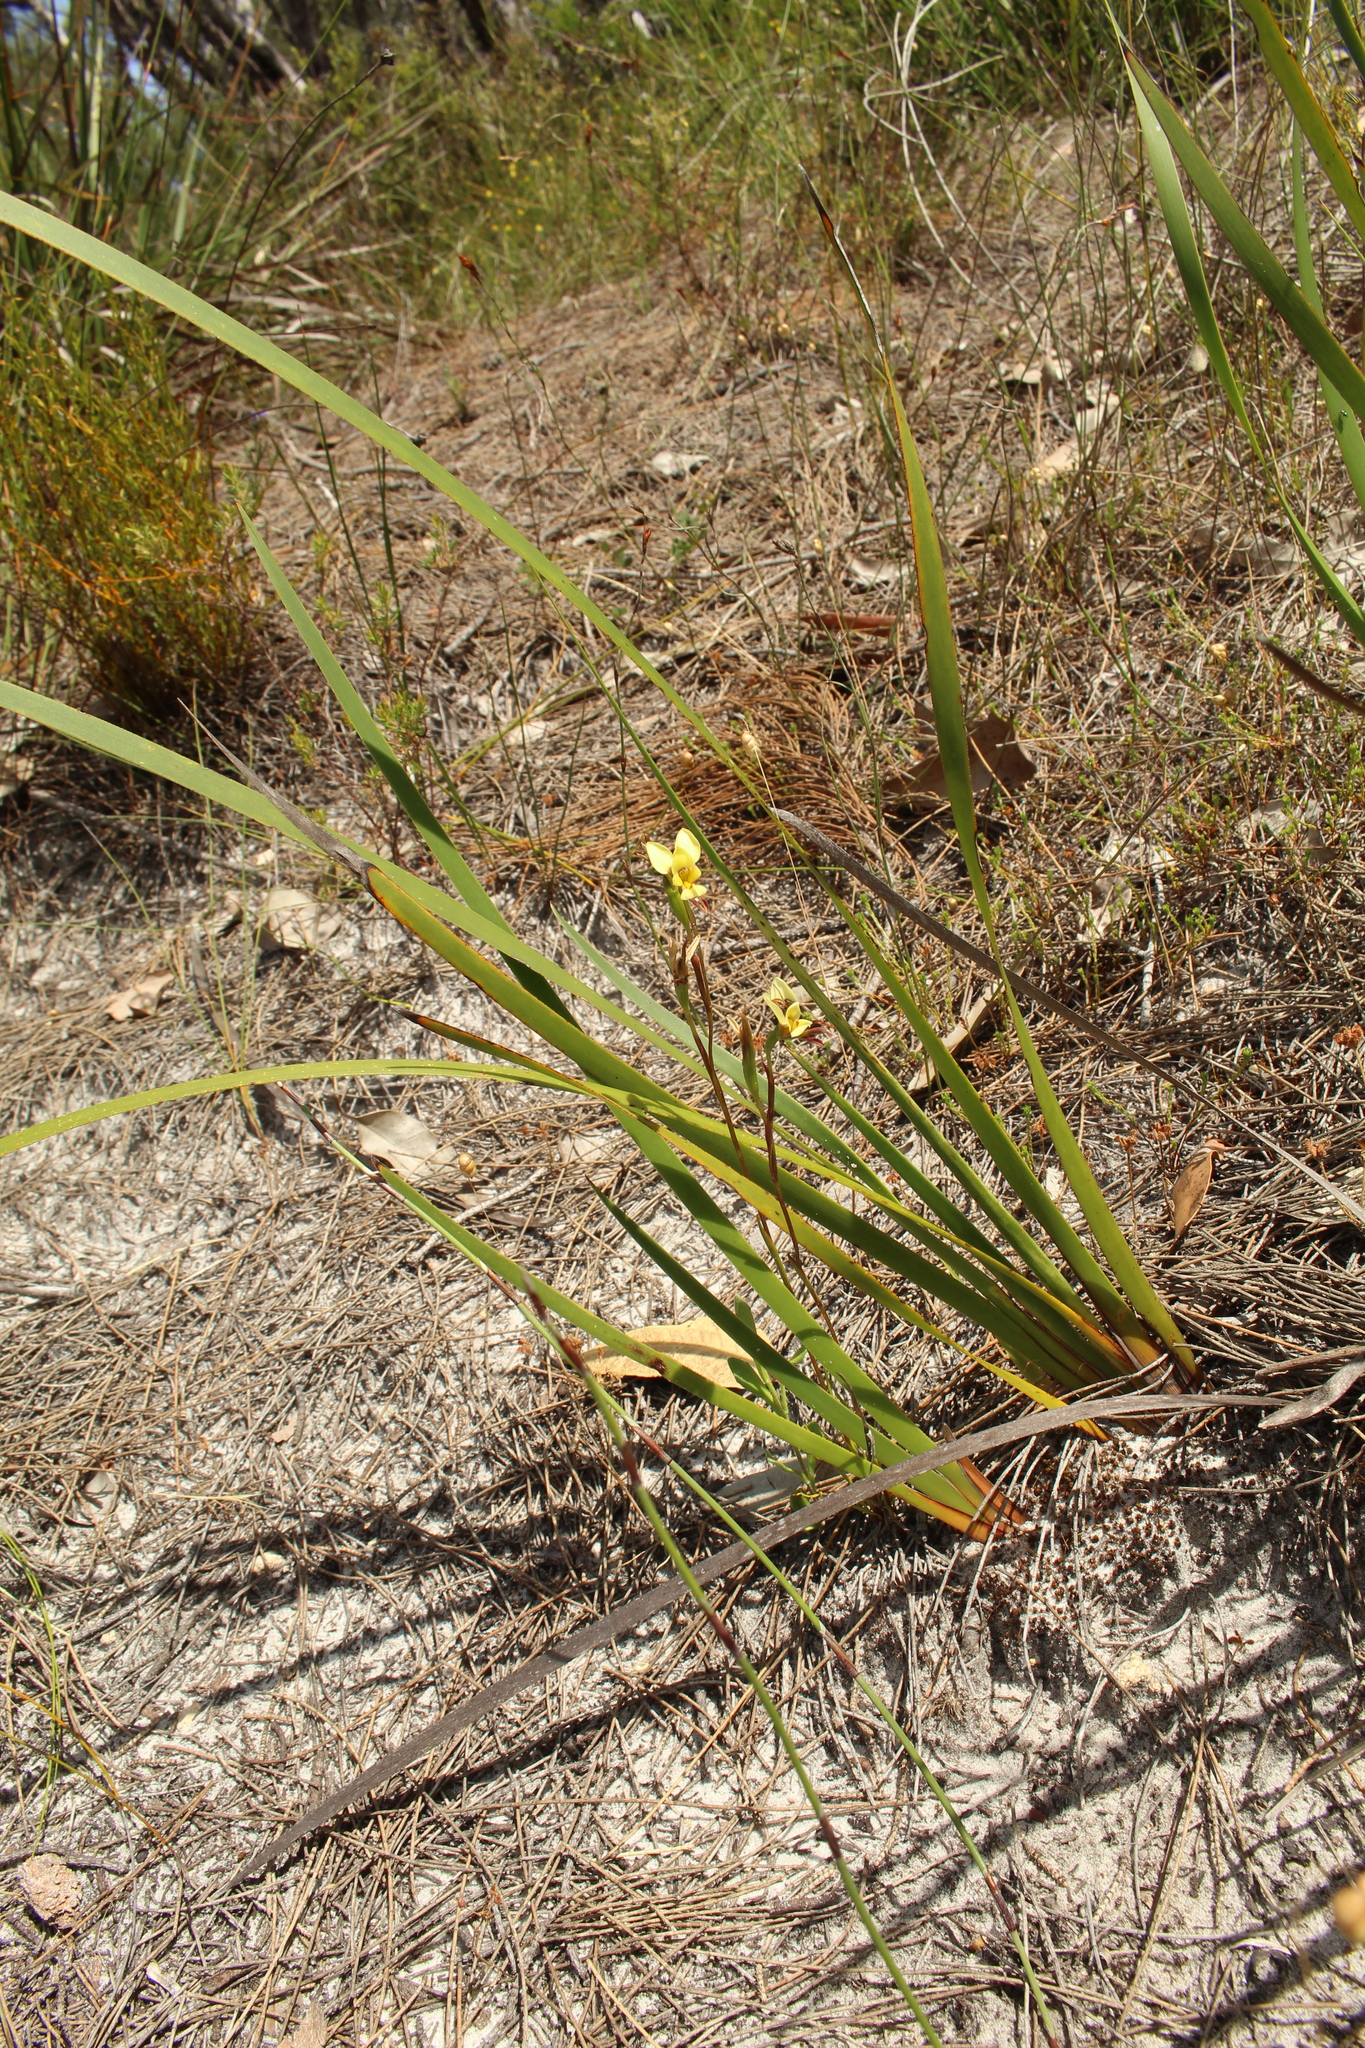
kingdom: Plantae
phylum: Tracheophyta
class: Liliopsida
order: Asparagales
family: Orchidaceae
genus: Diuris
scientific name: Diuris setacea
